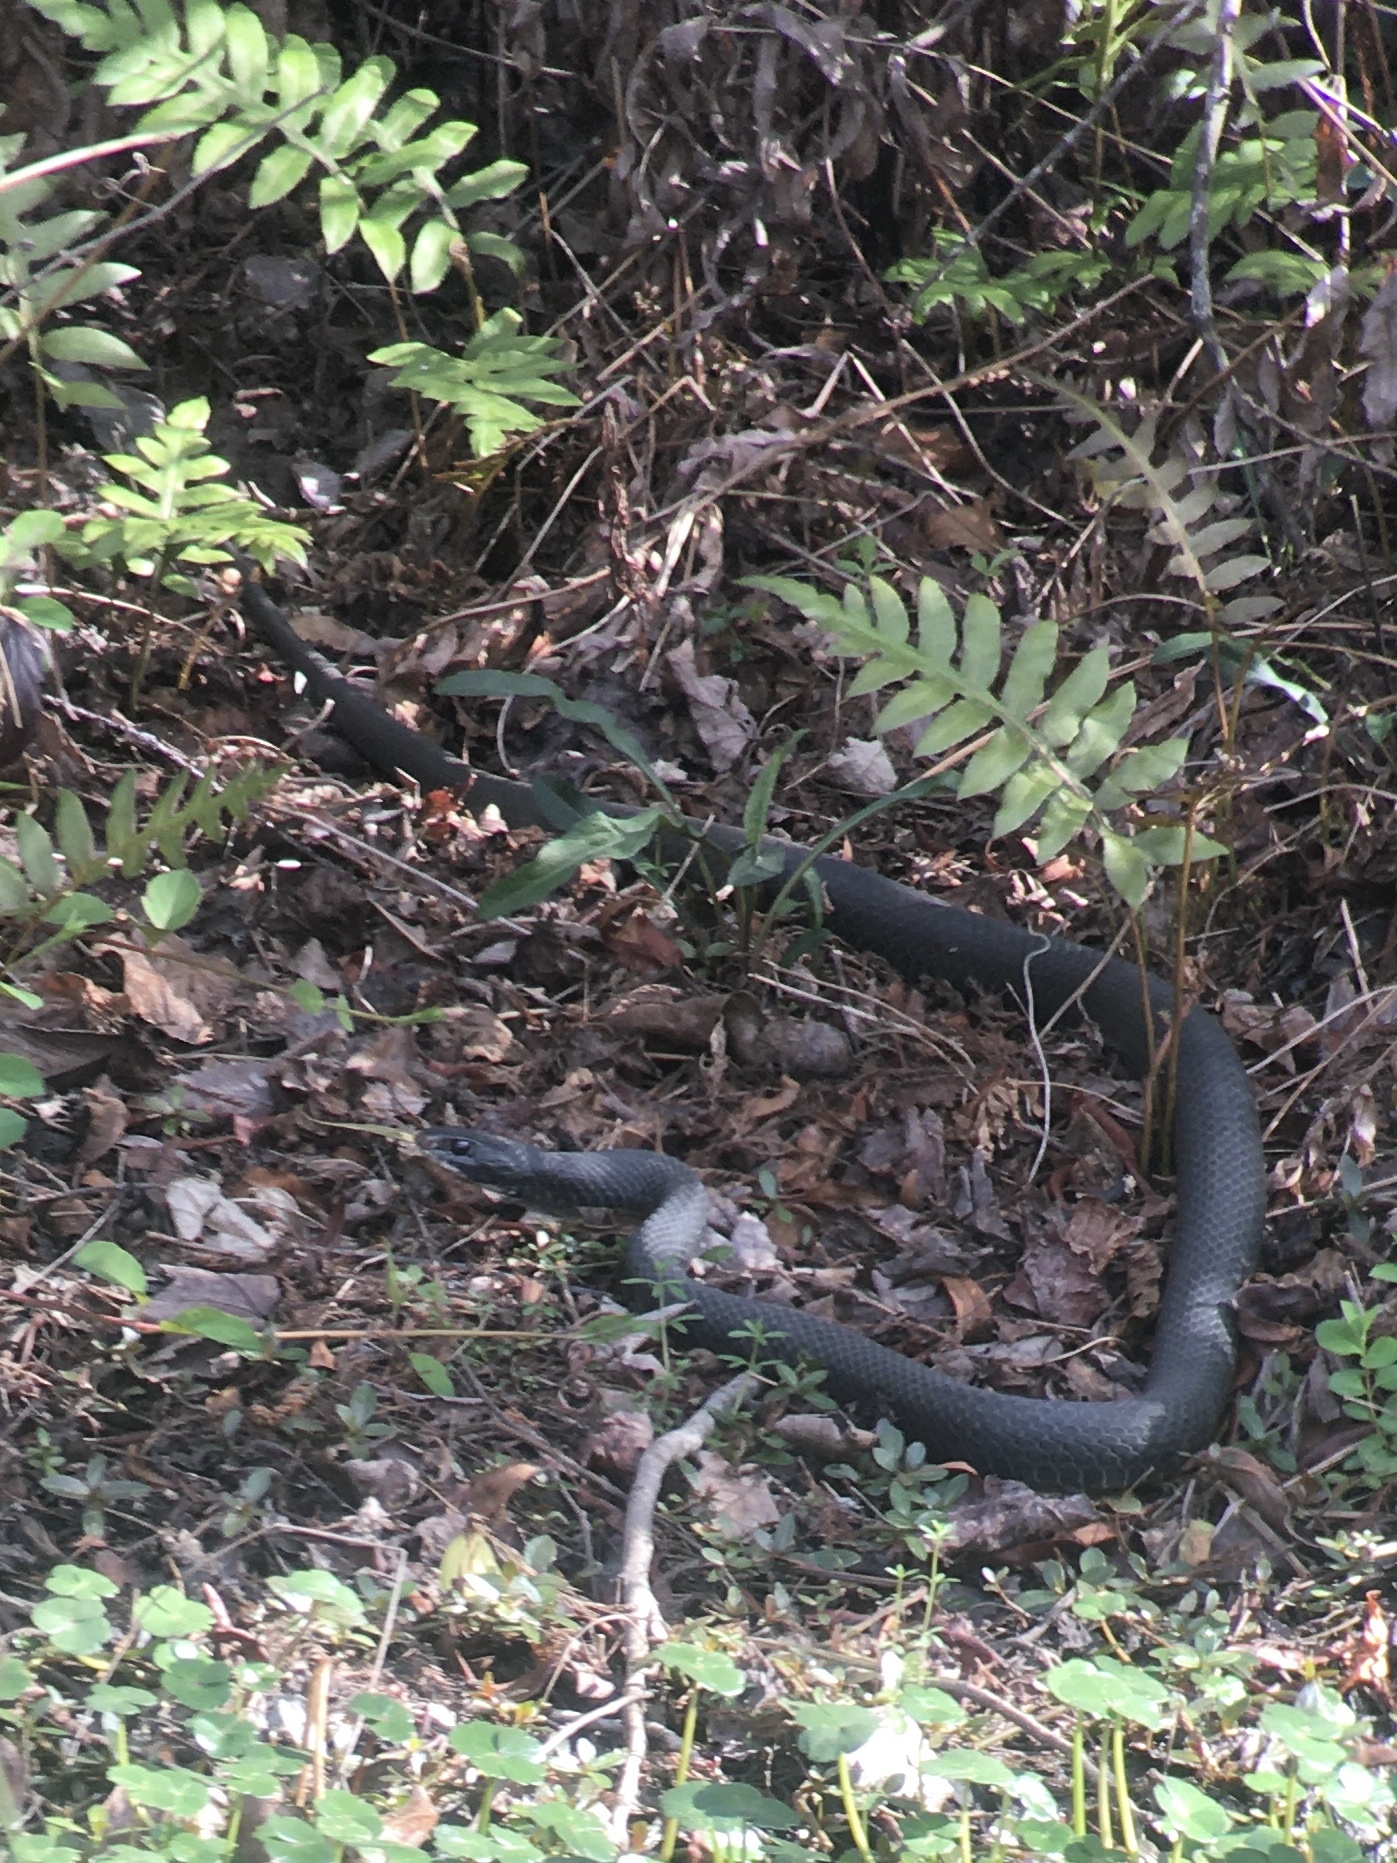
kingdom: Animalia
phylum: Chordata
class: Squamata
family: Colubridae
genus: Coluber
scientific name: Coluber constrictor
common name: Eastern racer
